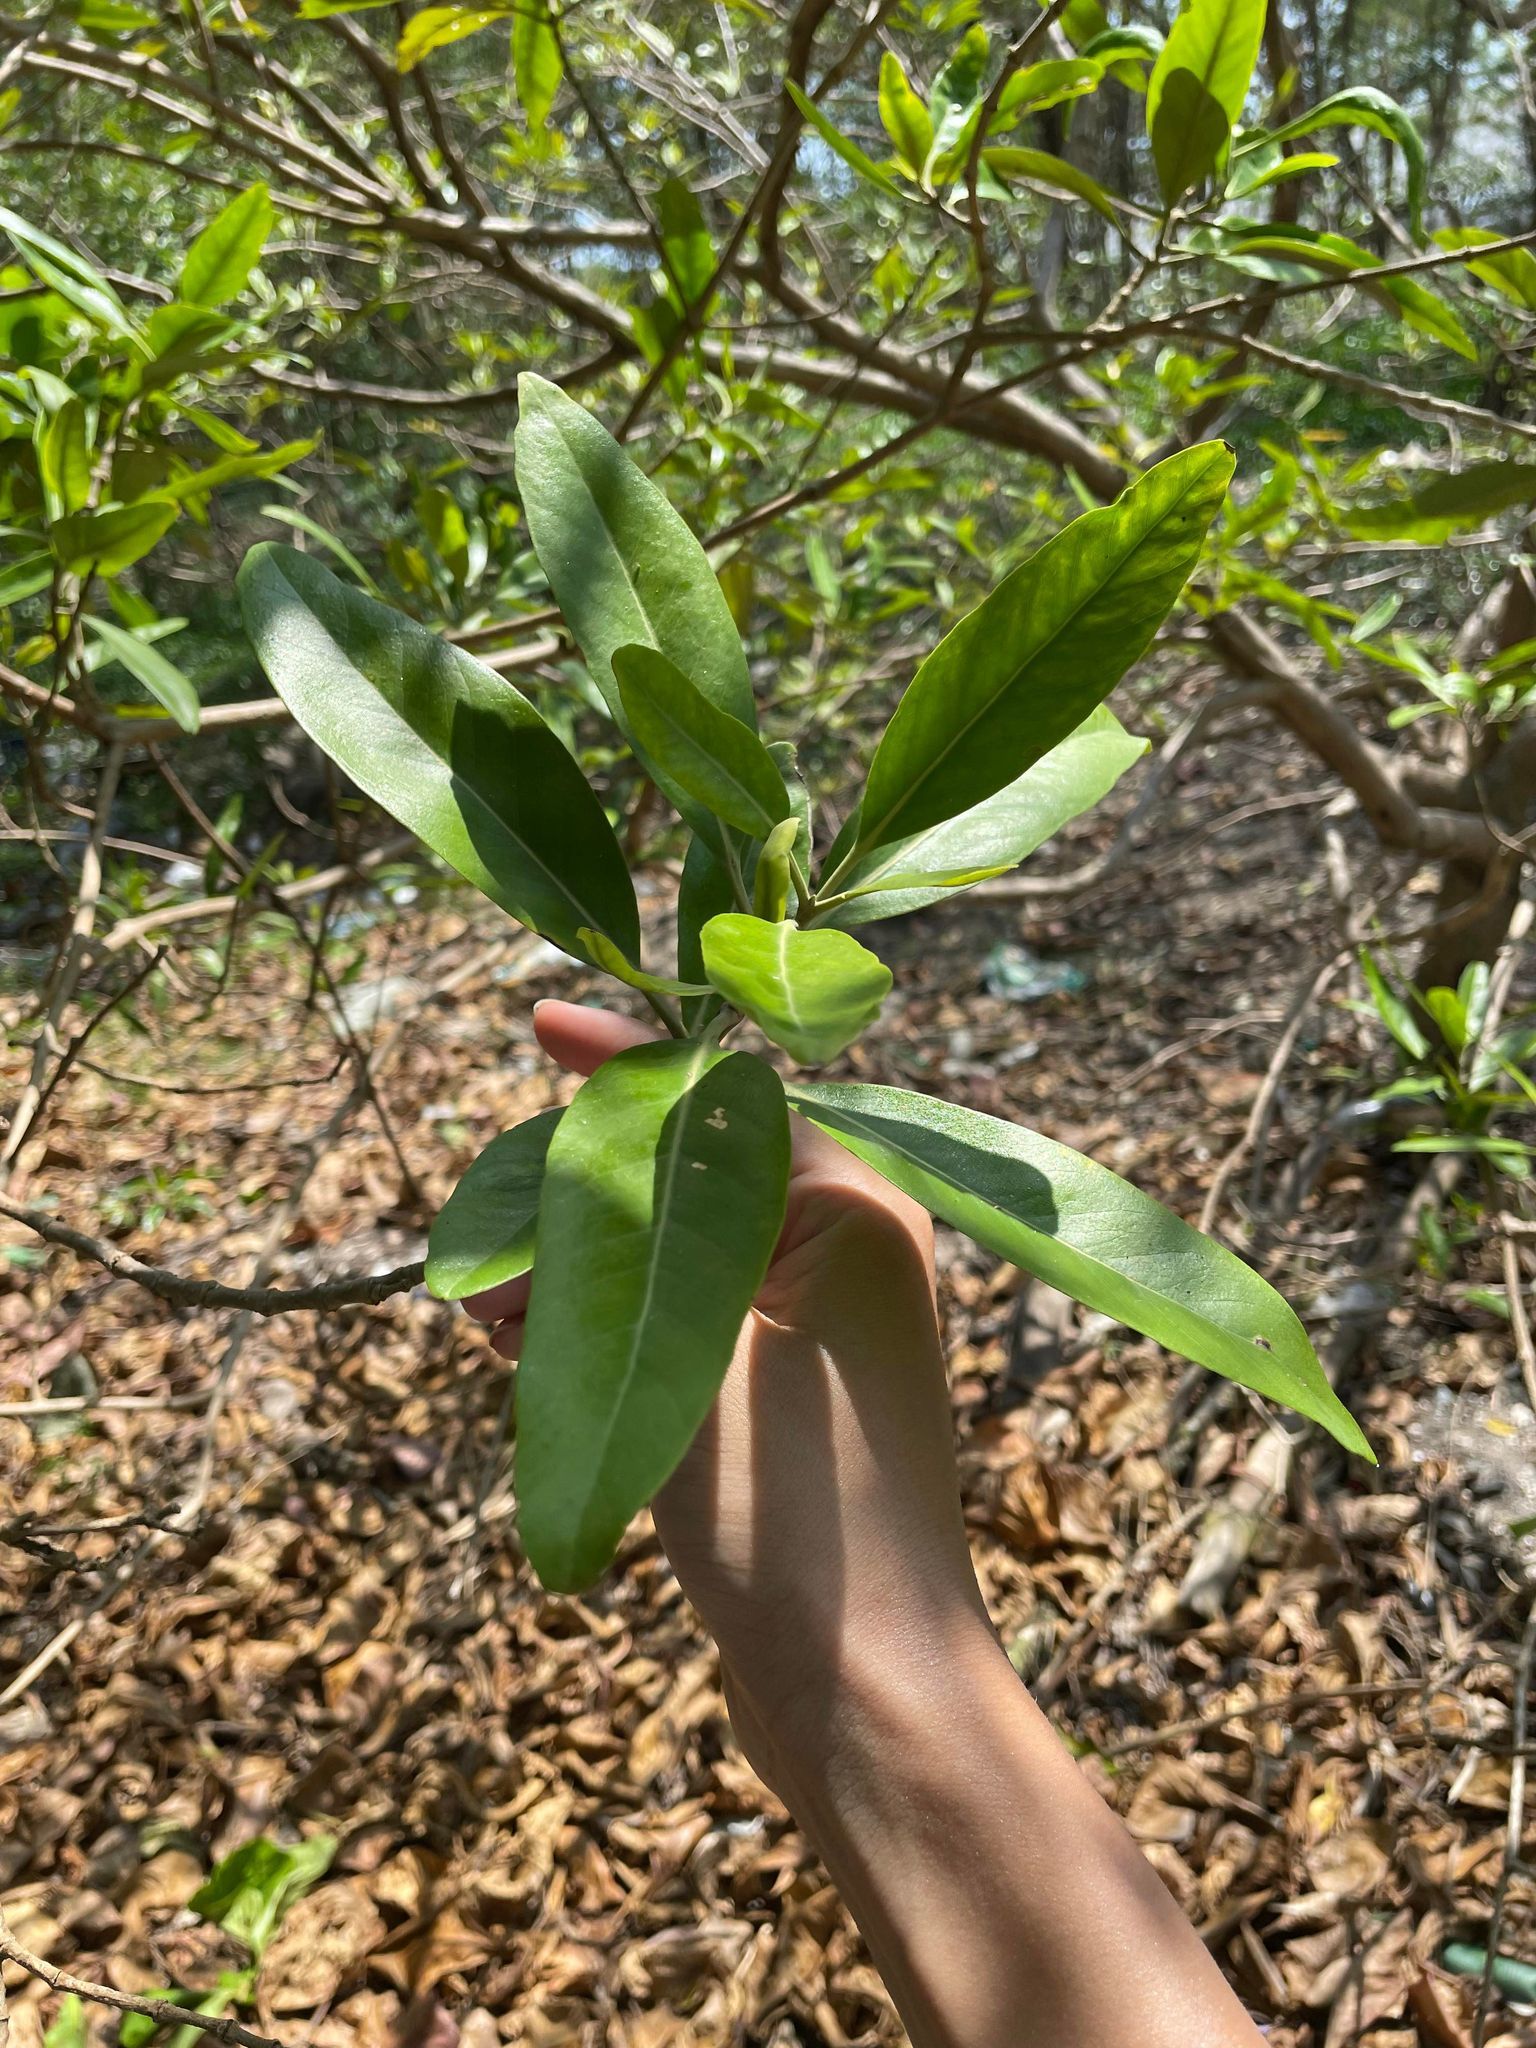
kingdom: Plantae
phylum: Tracheophyta
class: Magnoliopsida
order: Lamiales
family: Acanthaceae
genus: Avicennia
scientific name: Avicennia germinans
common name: Black mangrove
